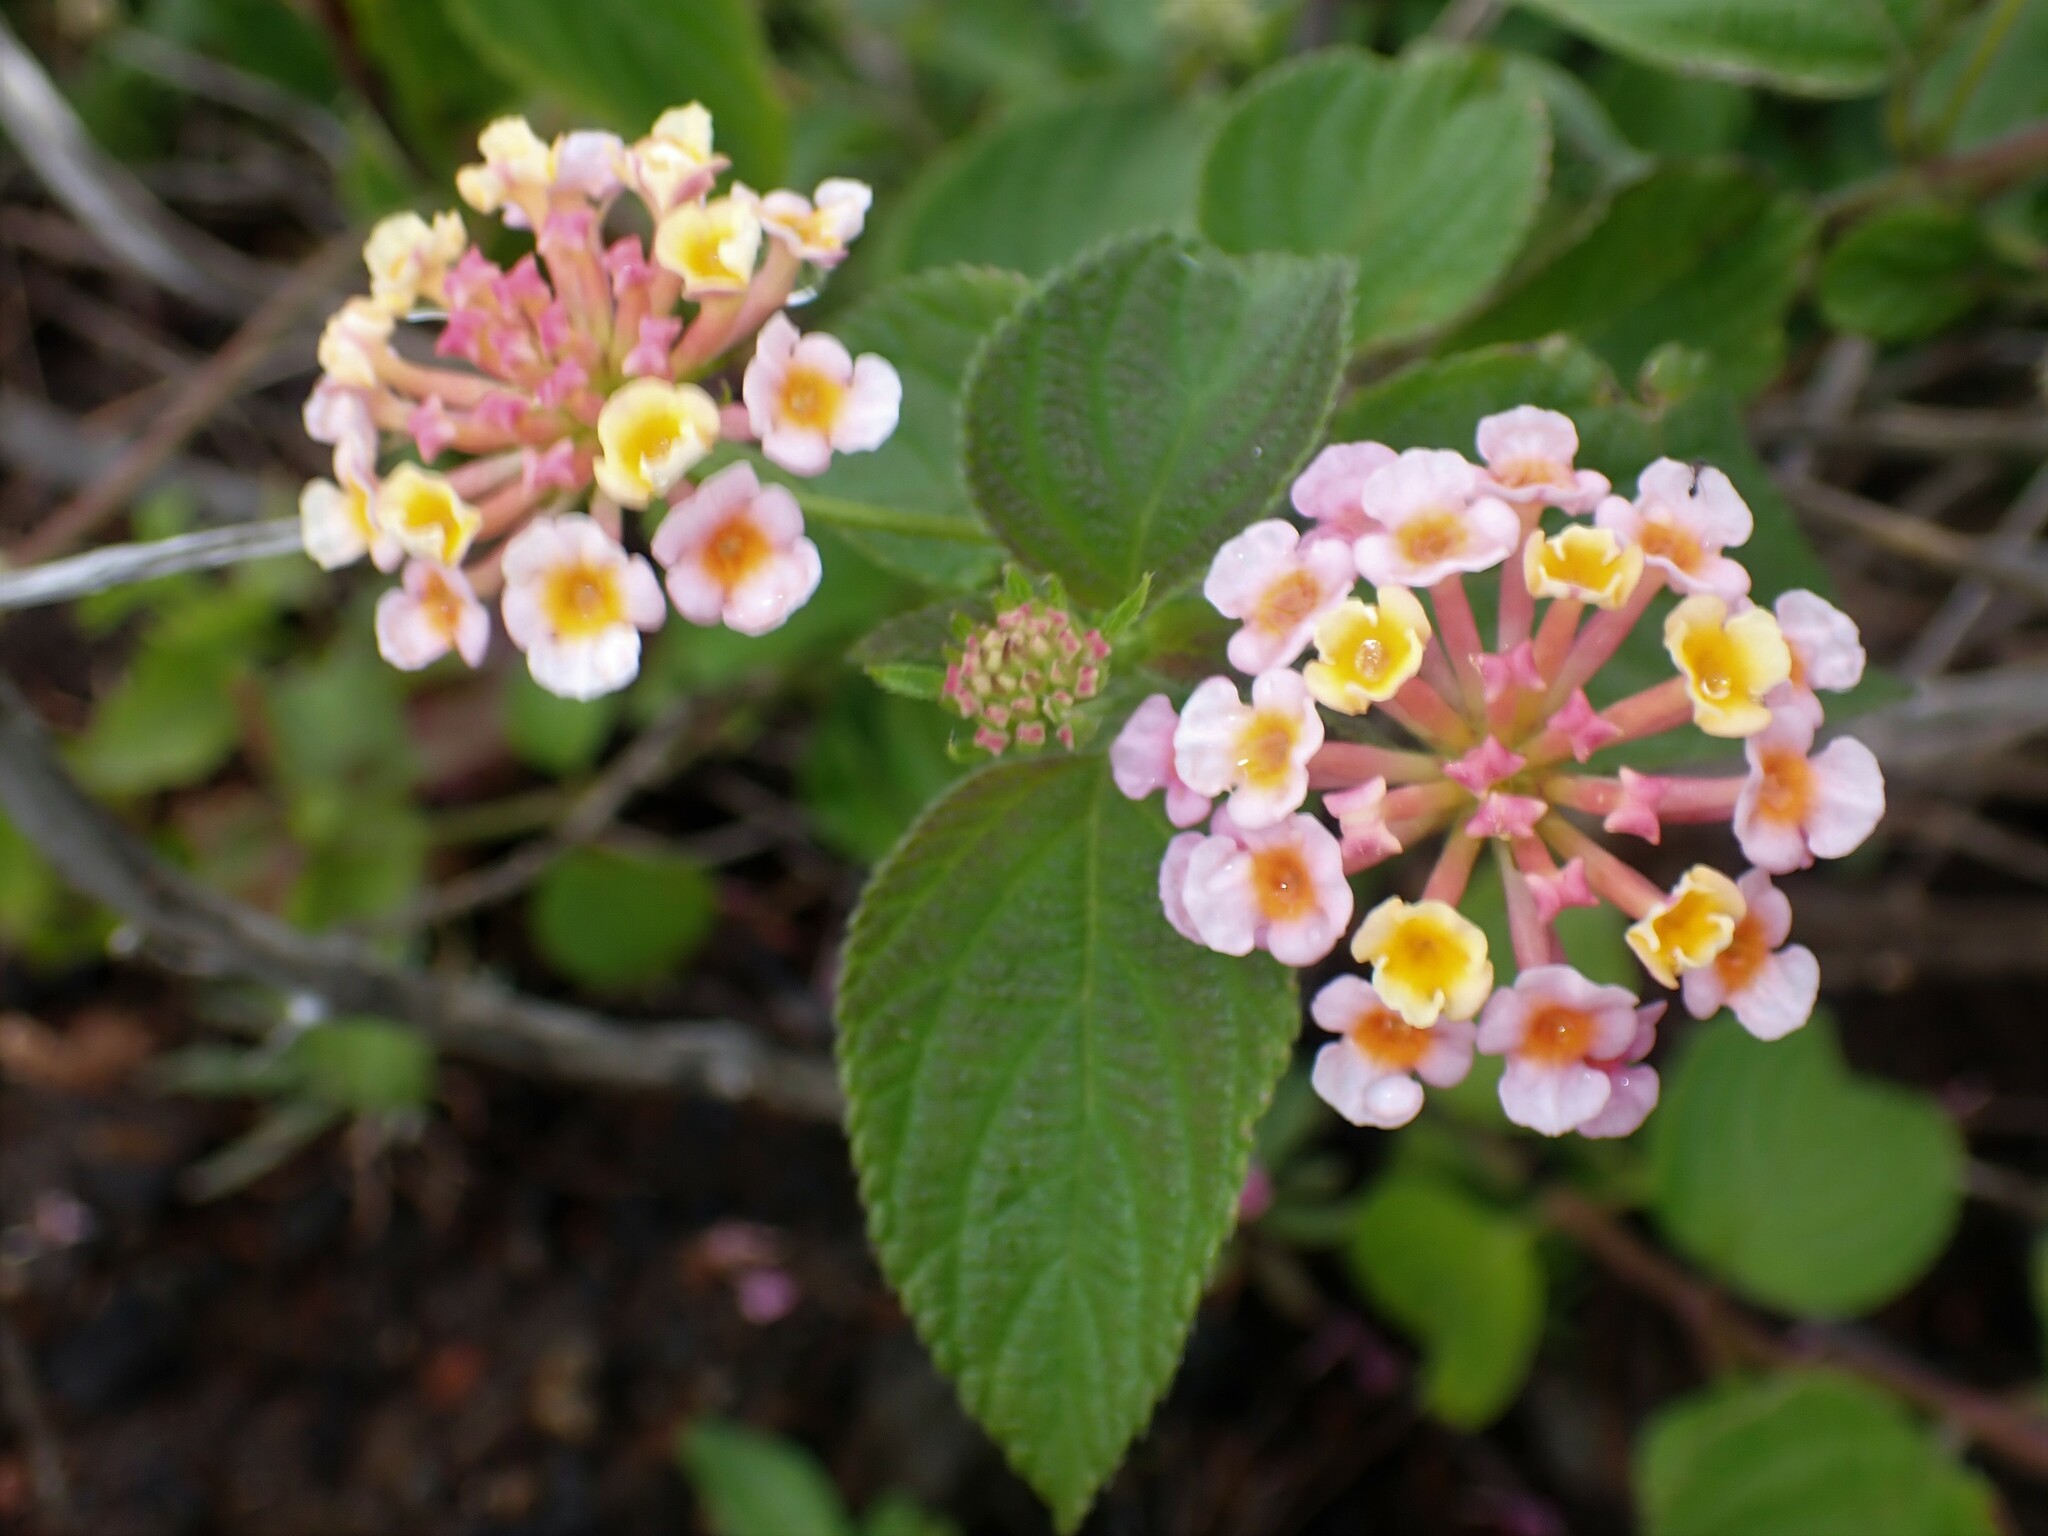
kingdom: Plantae
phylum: Tracheophyta
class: Magnoliopsida
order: Lamiales
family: Verbenaceae
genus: Lantana
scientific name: Lantana camara
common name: Lantana
